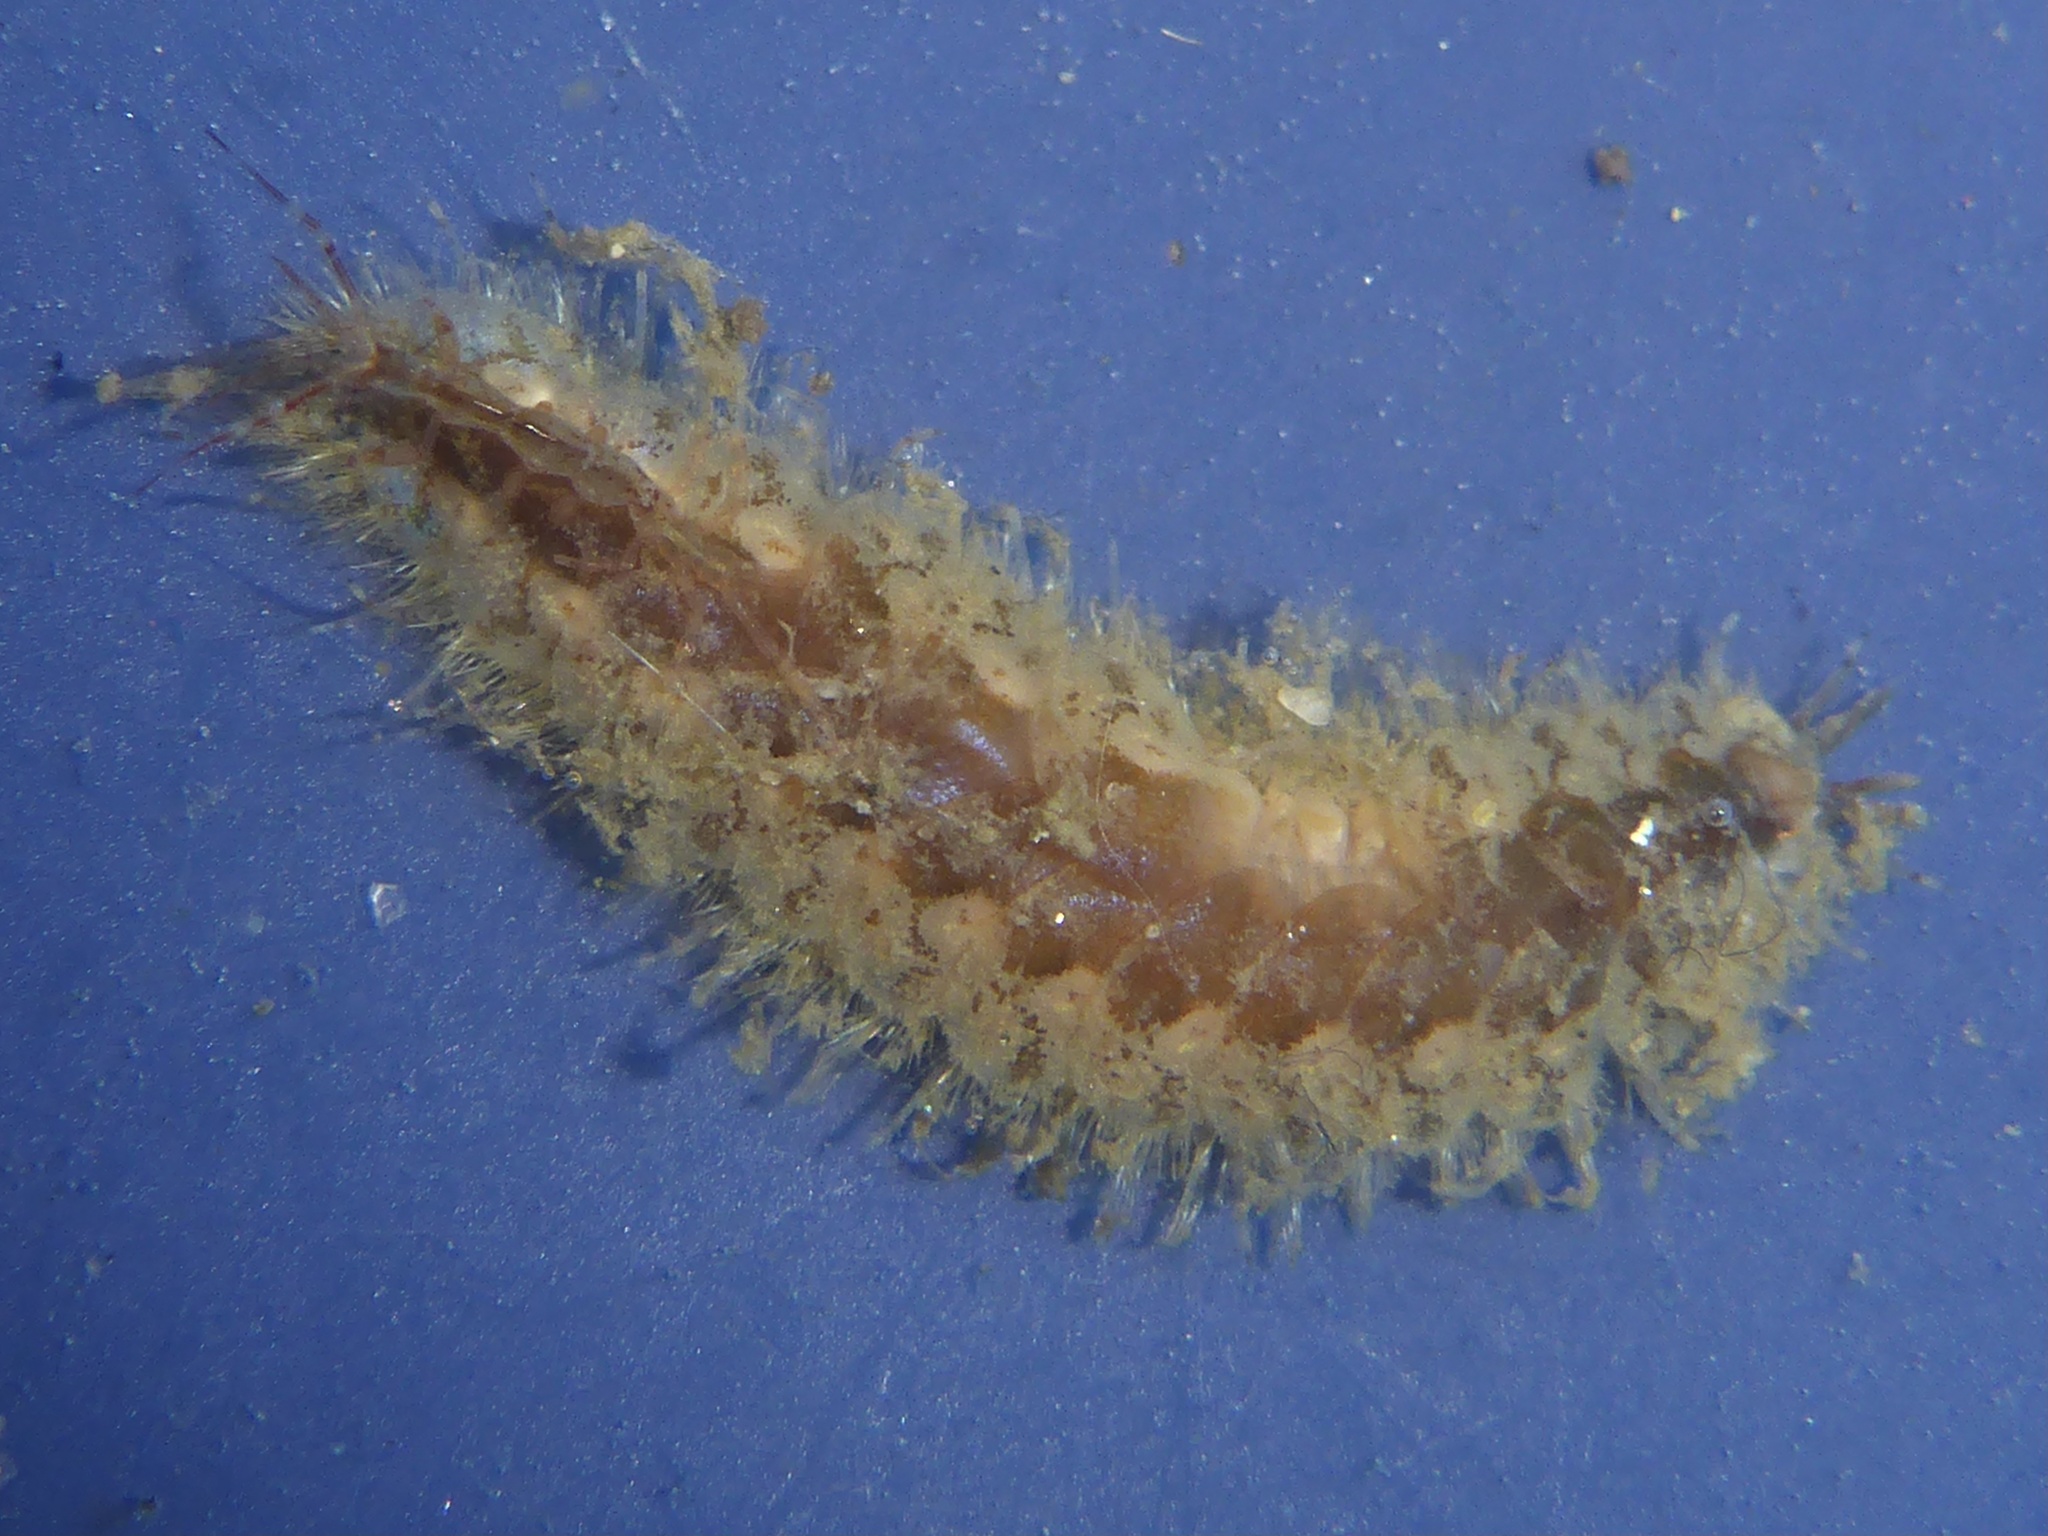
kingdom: Animalia
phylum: Annelida
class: Polychaeta
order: Phyllodocida
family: Polynoidae
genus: Harmothoe
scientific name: Harmothoe imbricata
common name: Fifteen-scaled worm
